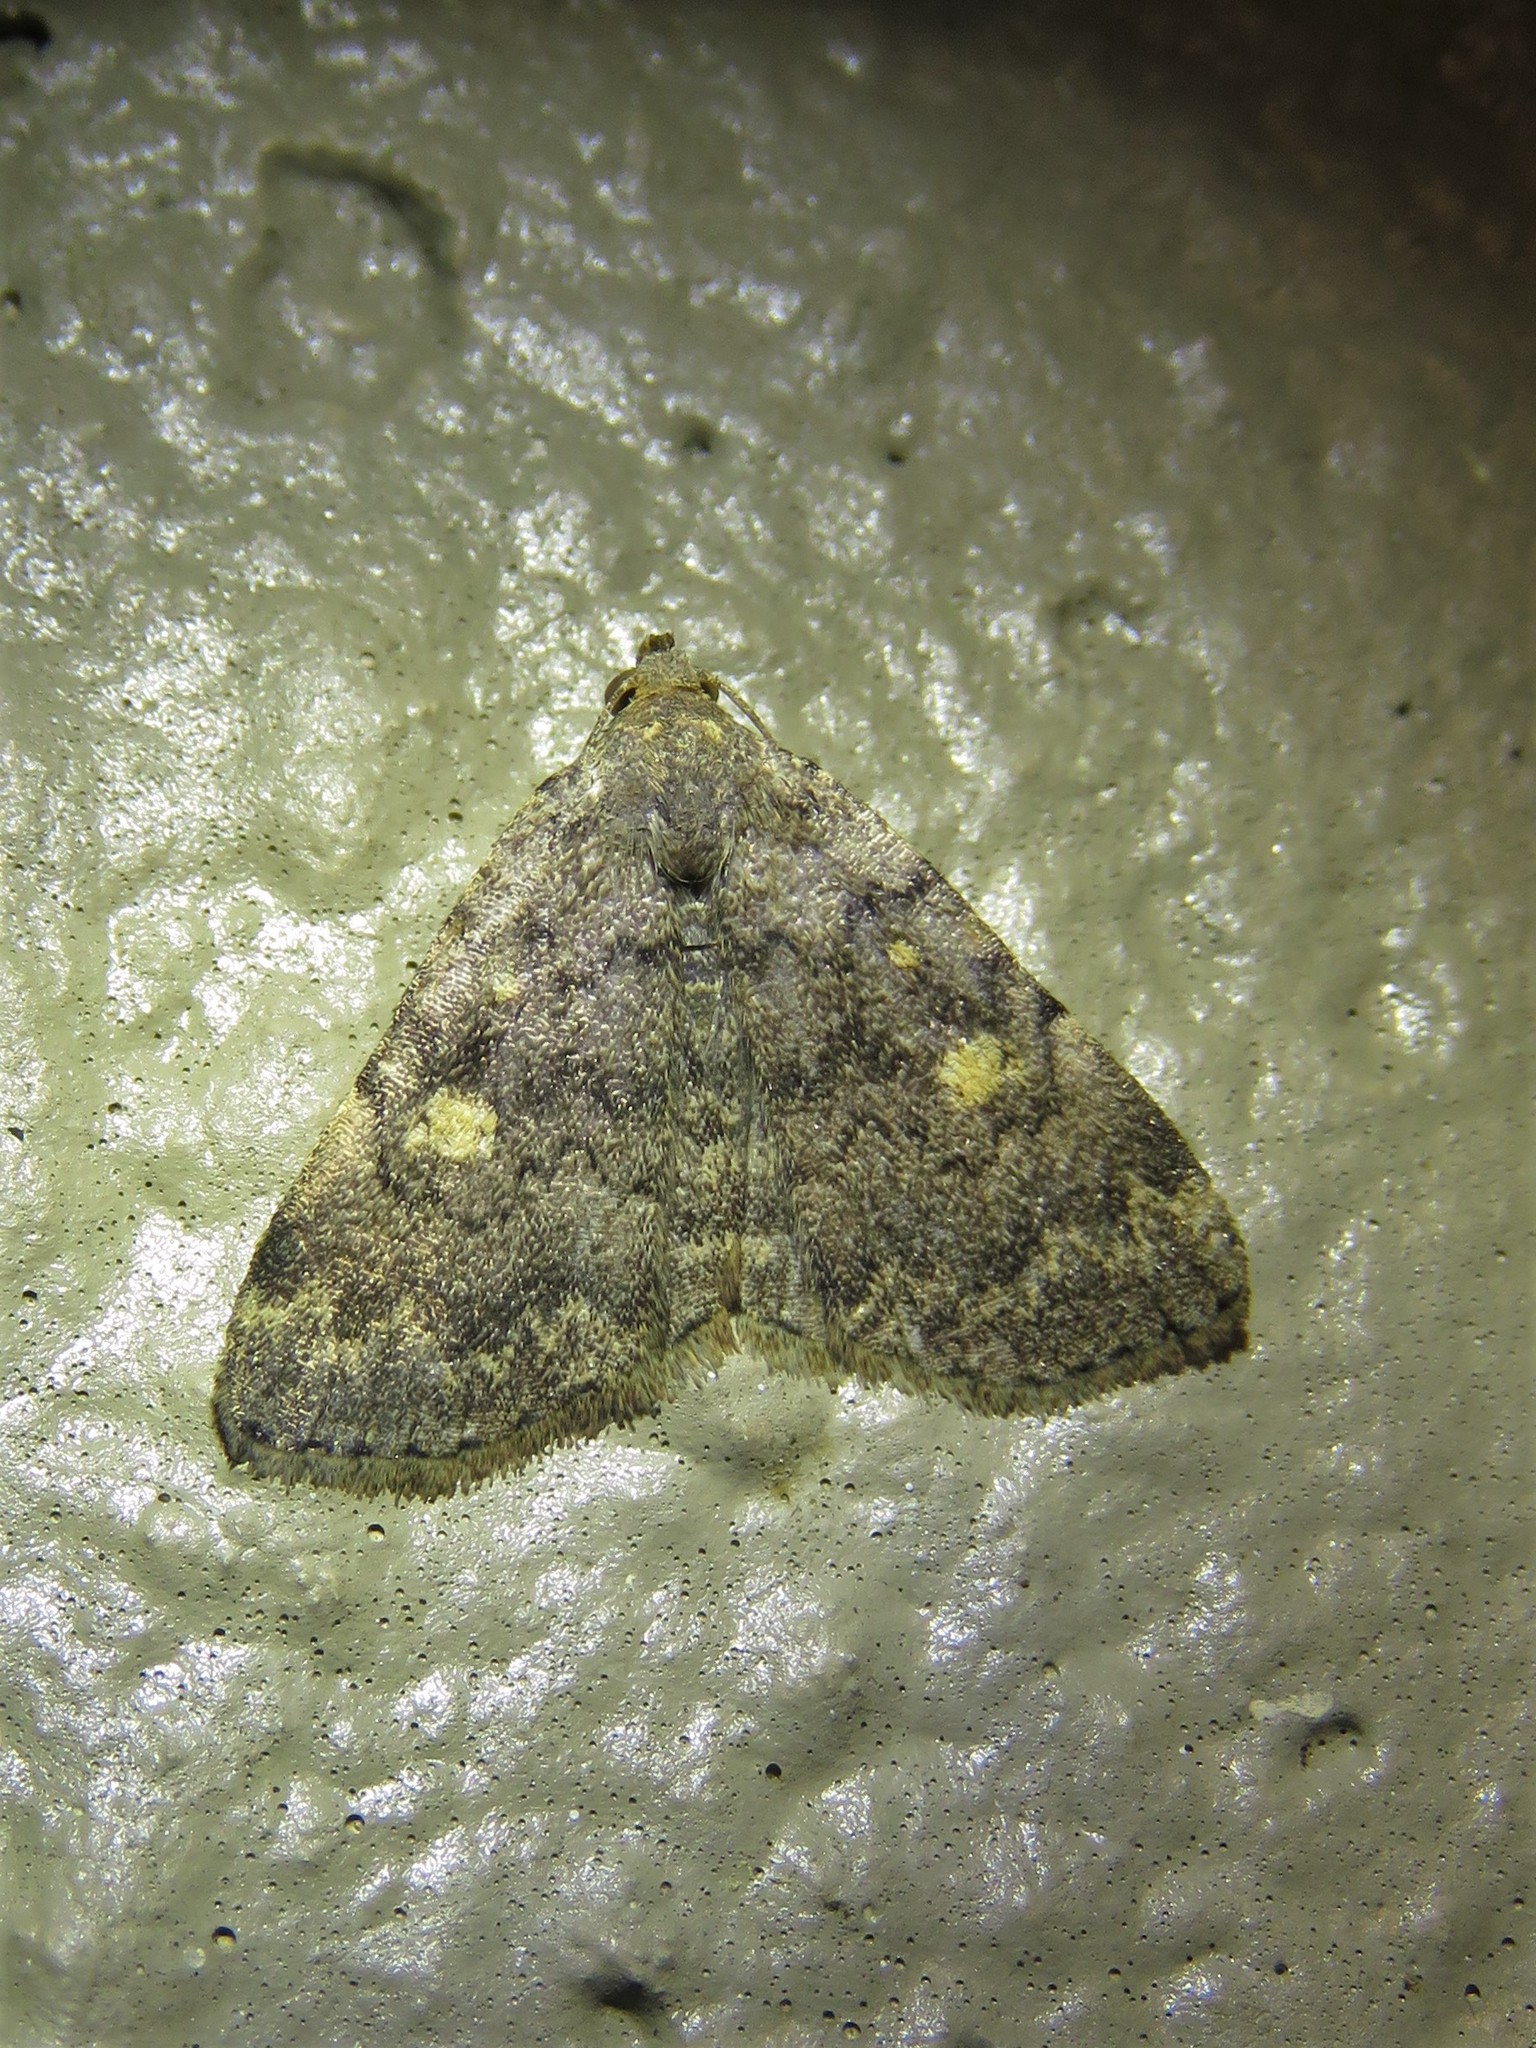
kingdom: Animalia
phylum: Arthropoda
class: Insecta
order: Lepidoptera
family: Erebidae
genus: Idia
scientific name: Idia aemula
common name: Common idia moth
